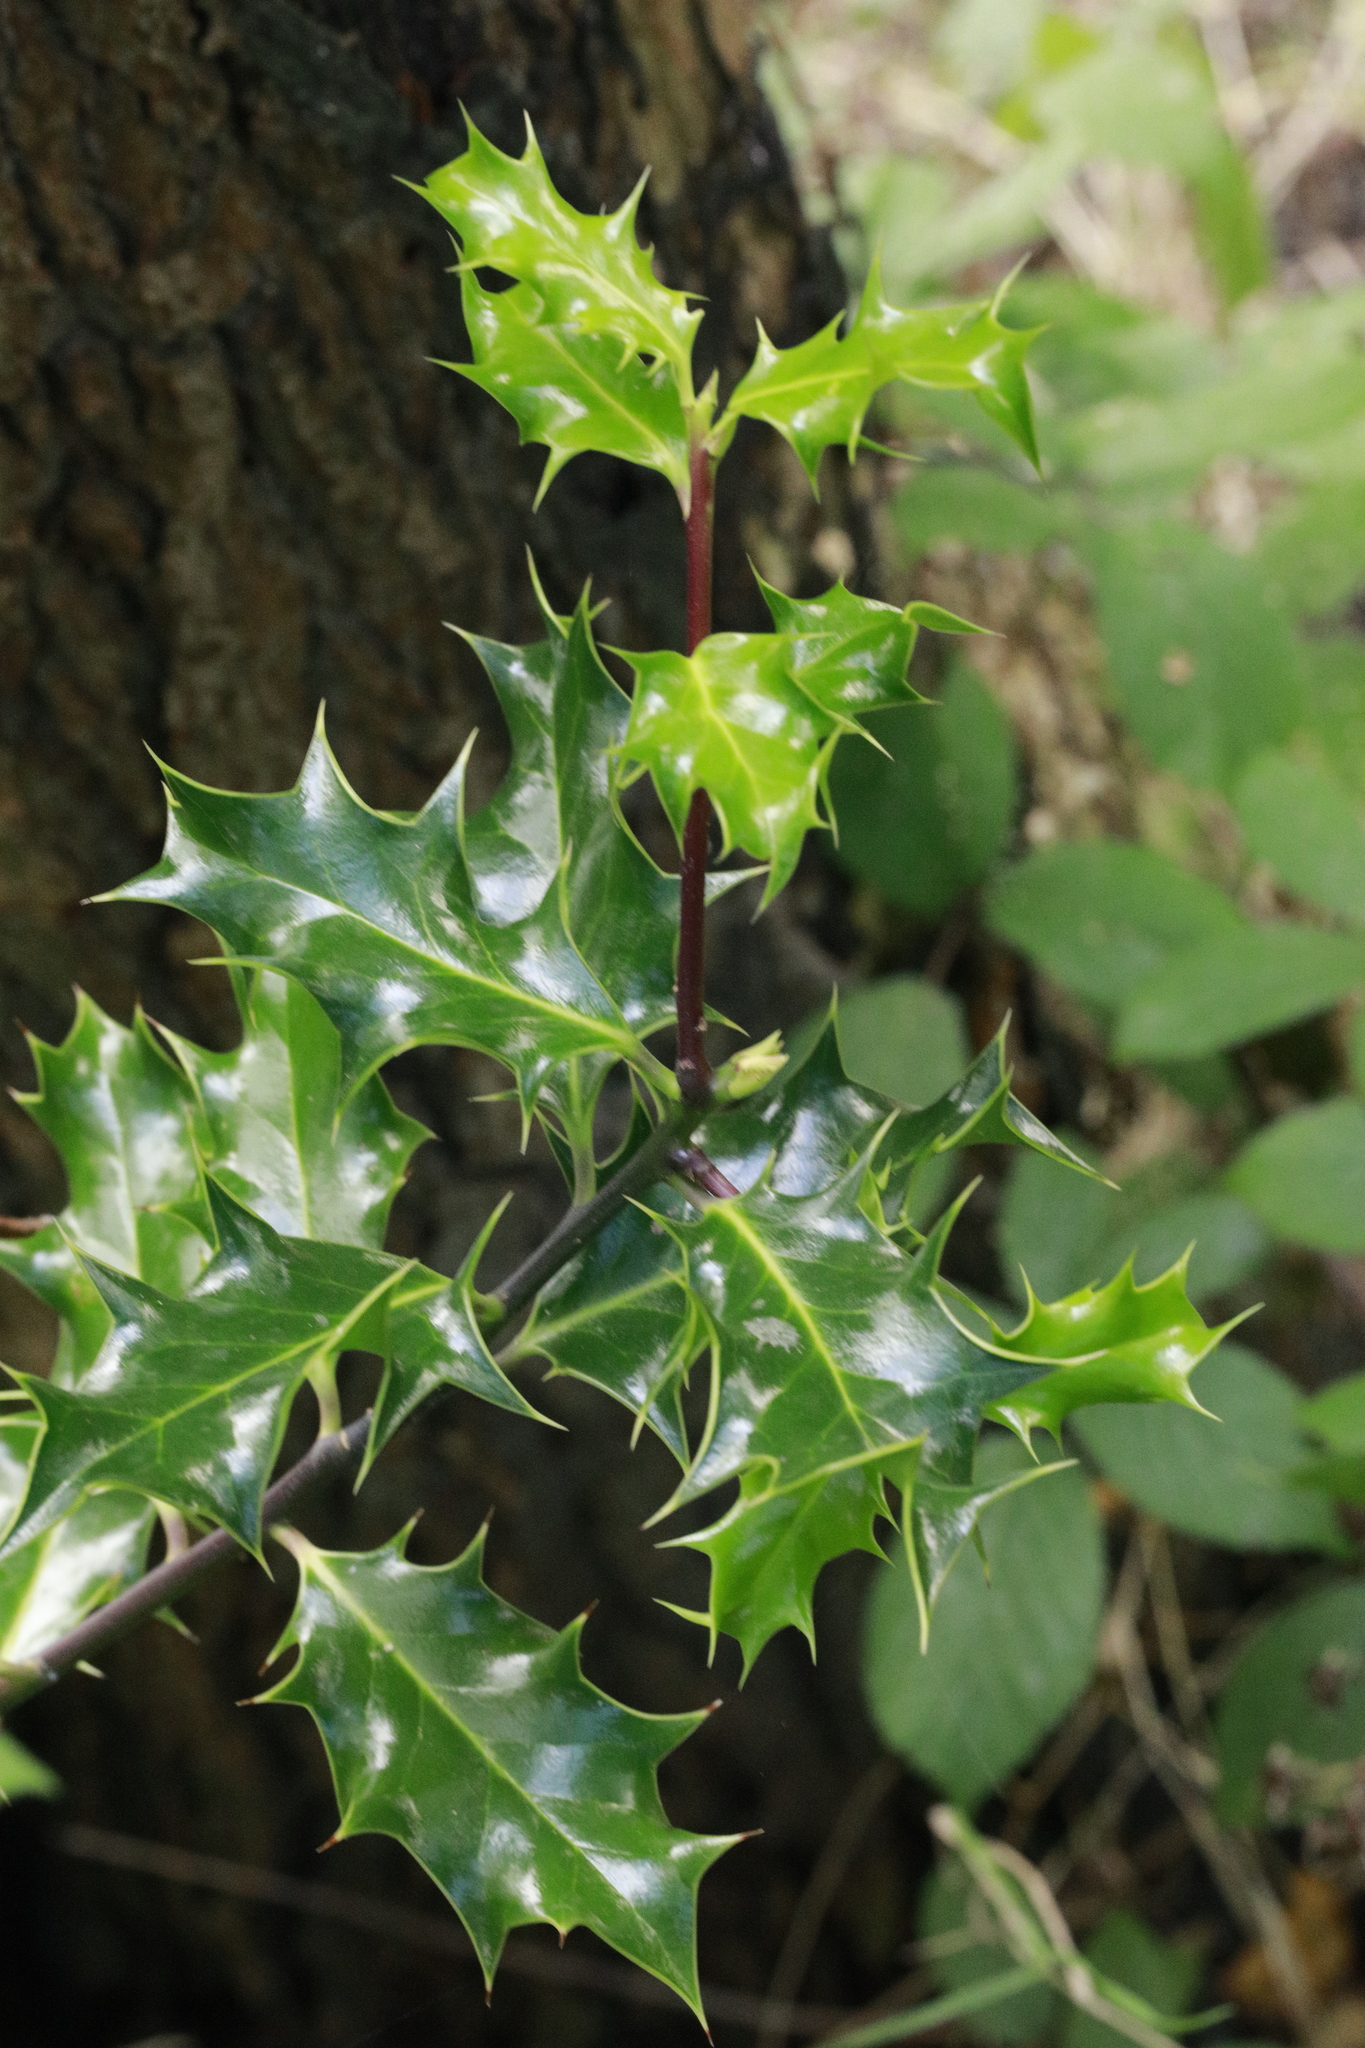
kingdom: Plantae
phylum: Tracheophyta
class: Magnoliopsida
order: Aquifoliales
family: Aquifoliaceae
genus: Ilex
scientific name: Ilex aquifolium
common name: English holly
